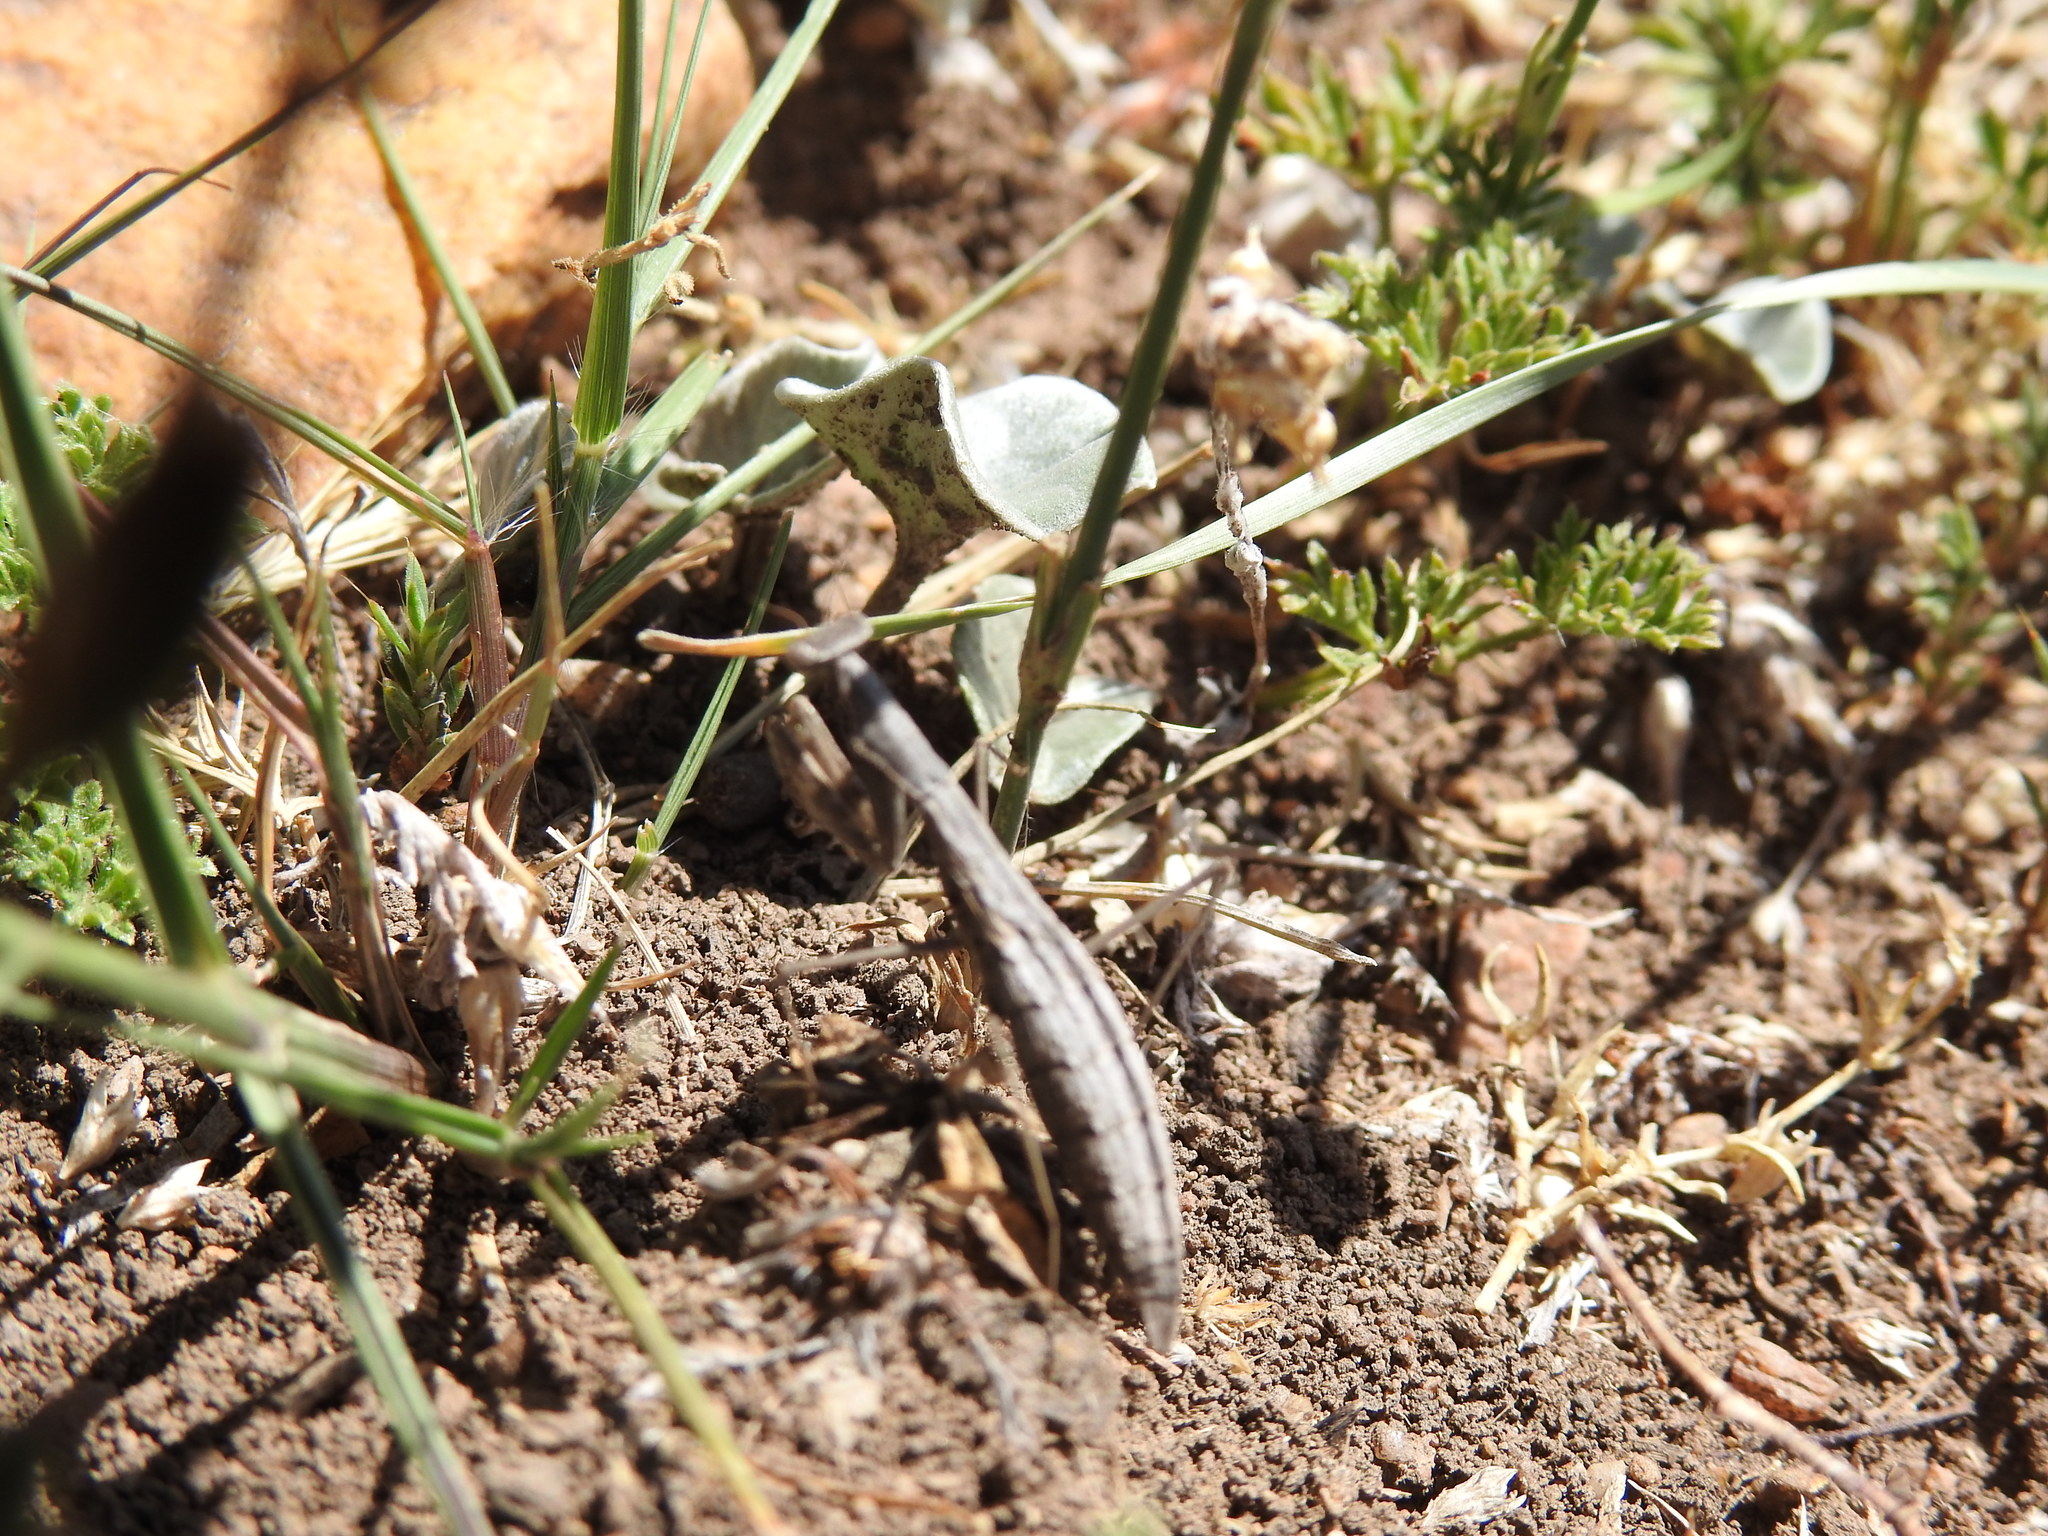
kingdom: Plantae
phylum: Tracheophyta
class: Liliopsida
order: Asparagales
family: Amaryllidaceae
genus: Zephyranthes
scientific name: Zephyranthes tubispatha
